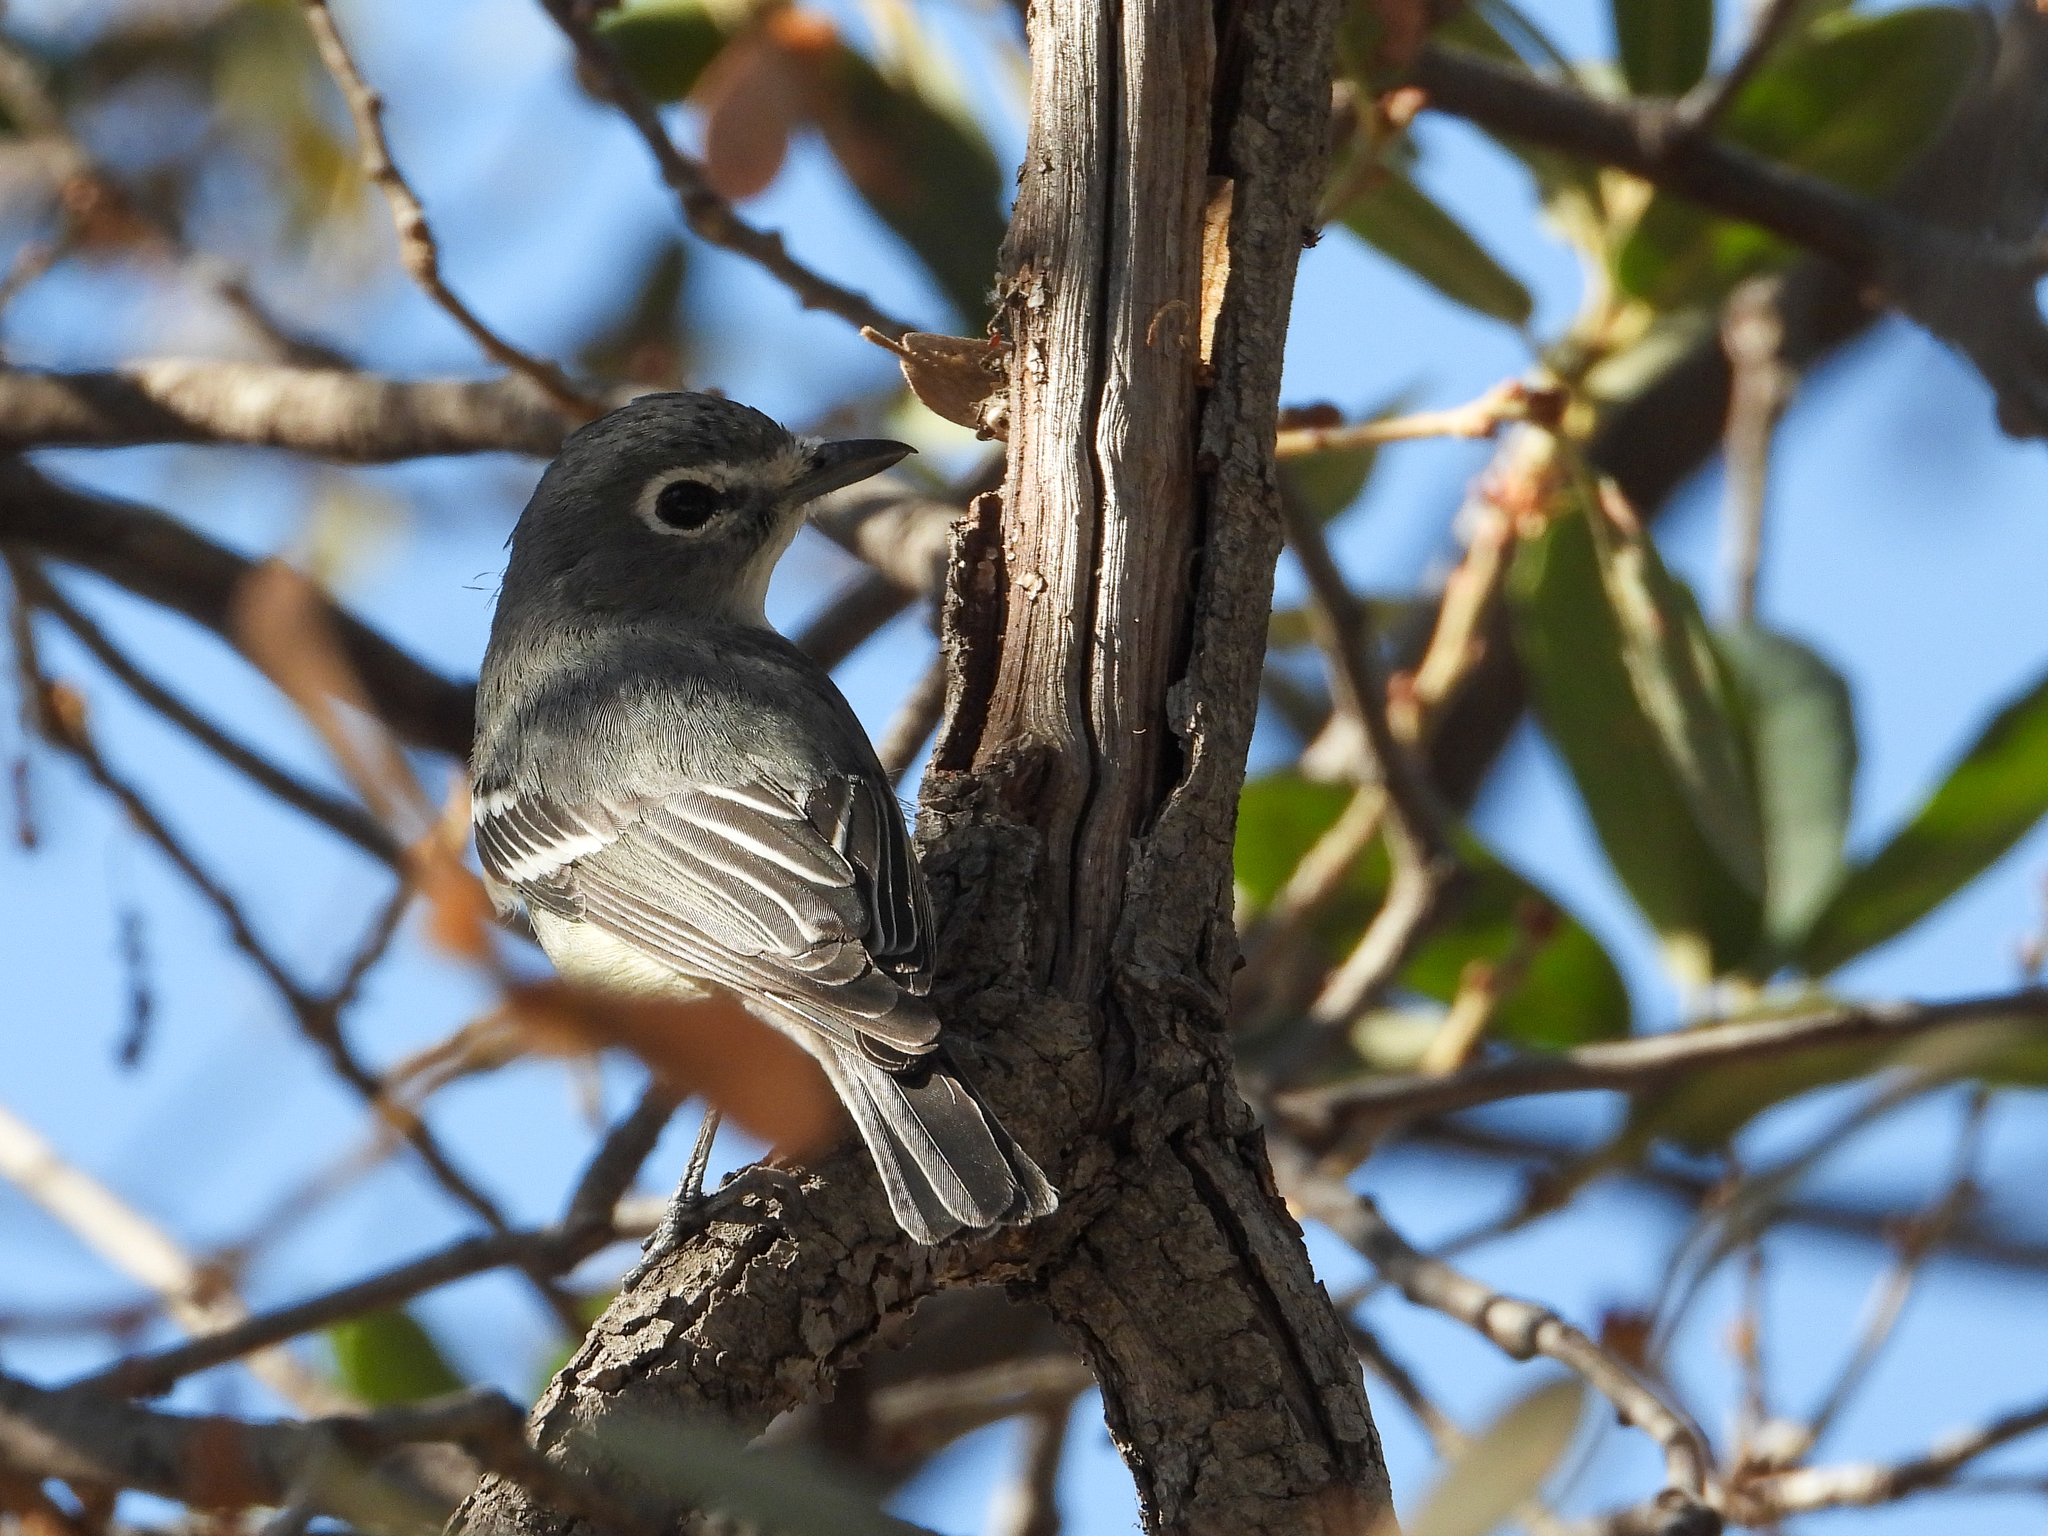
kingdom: Animalia
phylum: Chordata
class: Aves
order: Passeriformes
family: Vireonidae
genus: Vireo
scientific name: Vireo plumbeus
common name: Plumbeous vireo
